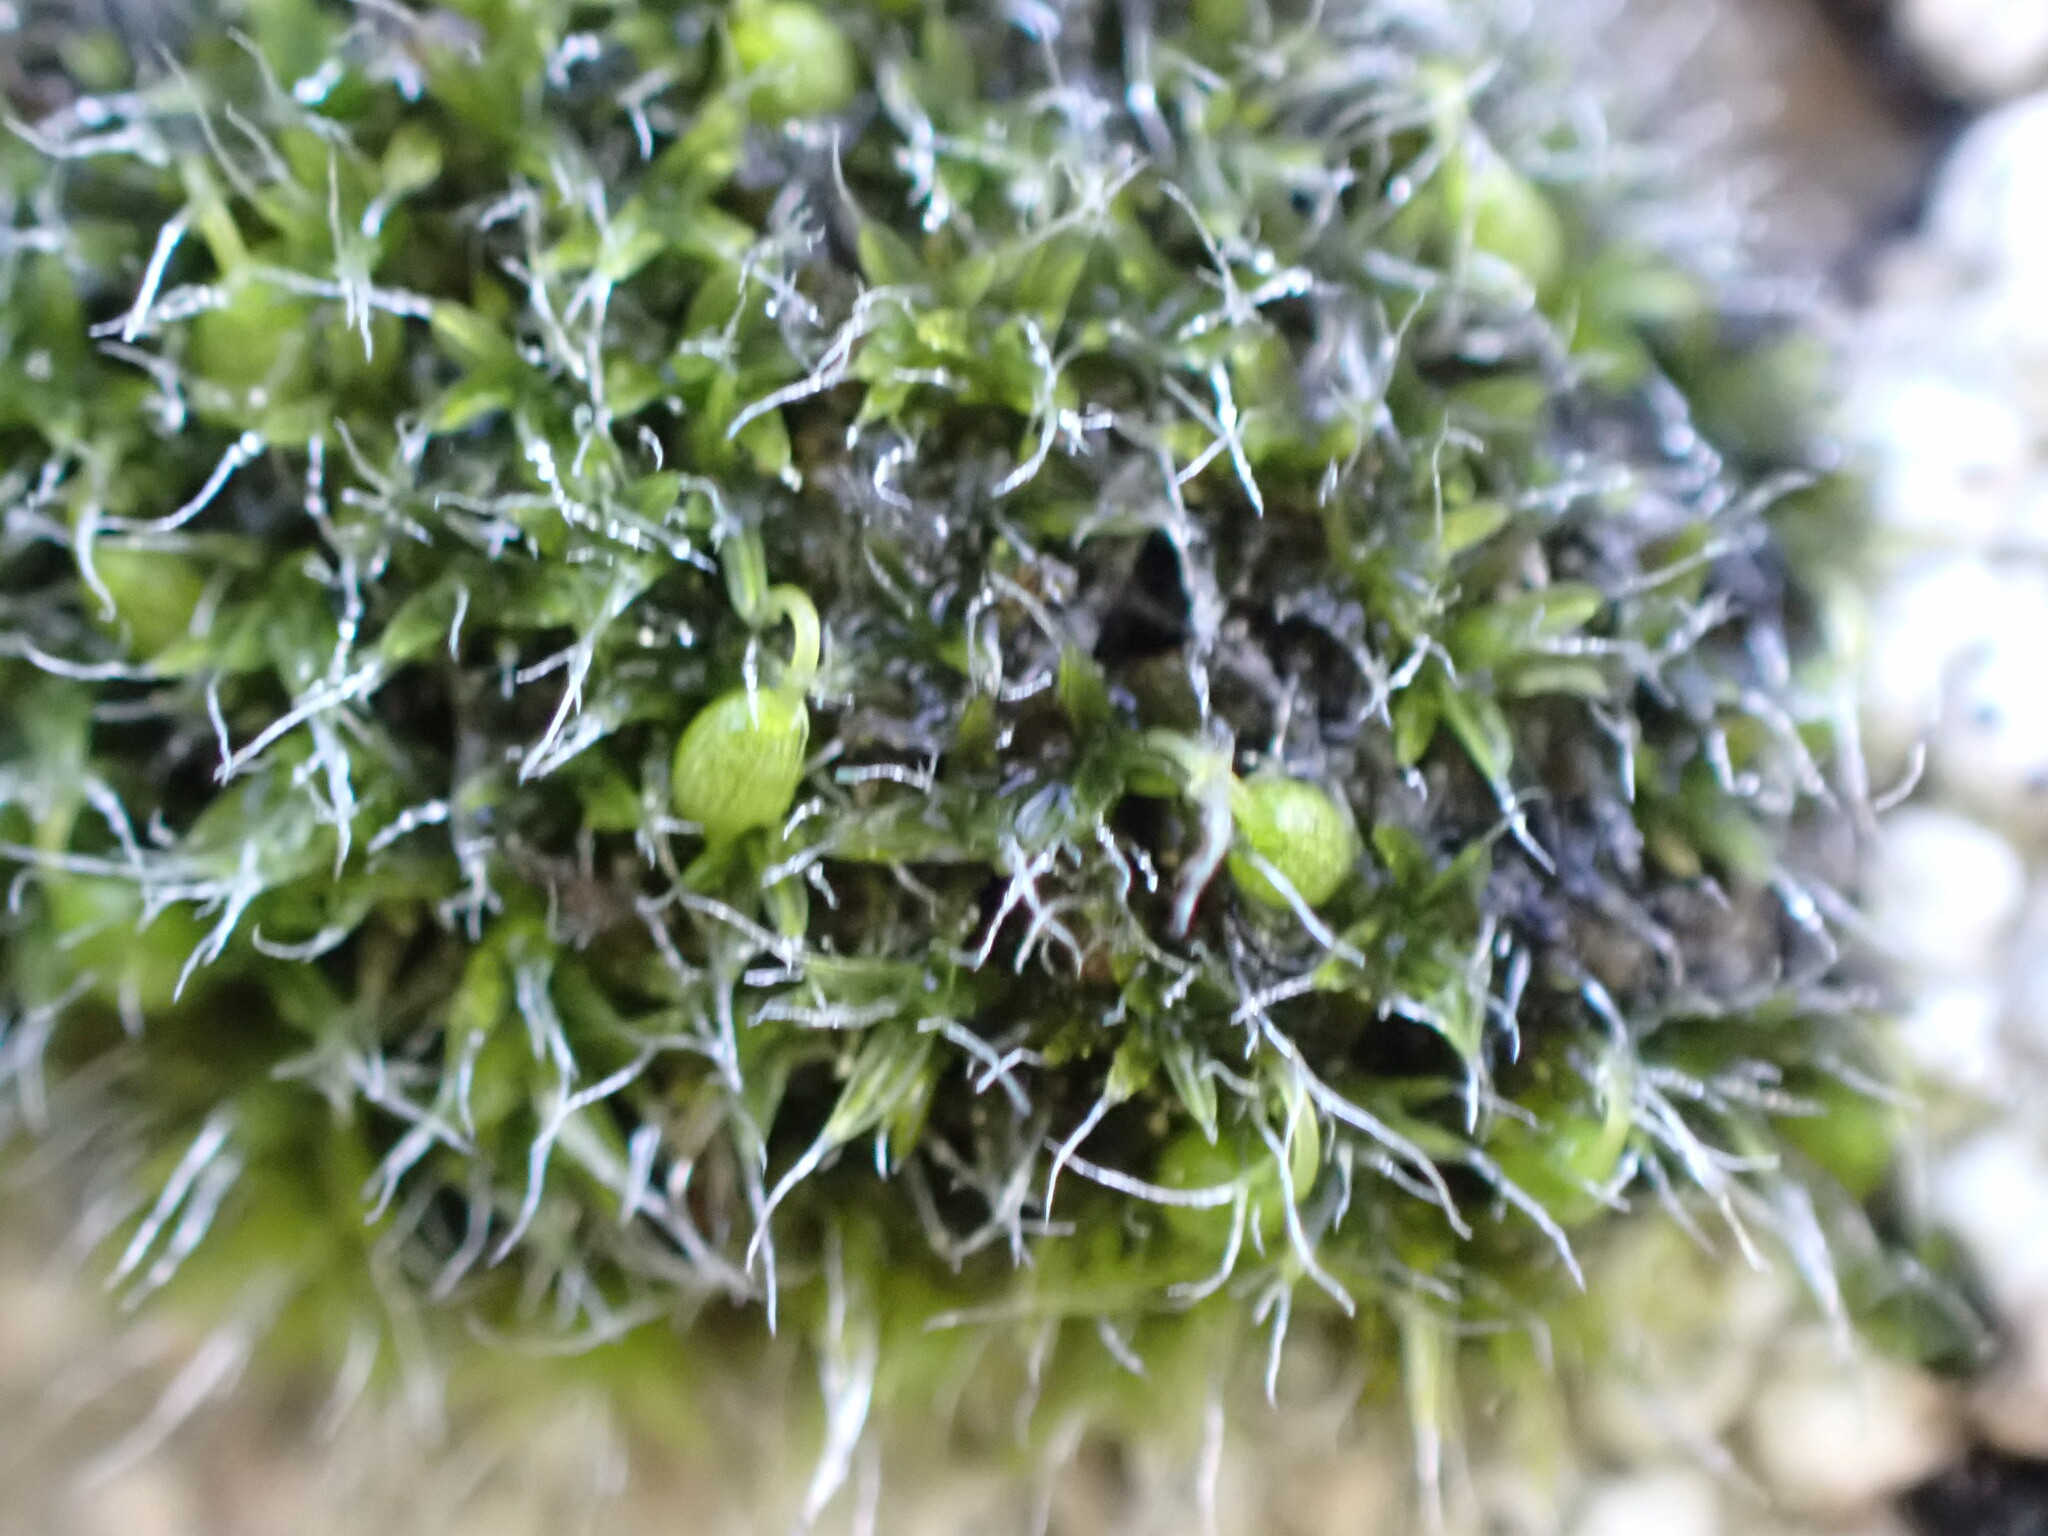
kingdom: Plantae
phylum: Bryophyta
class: Bryopsida
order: Grimmiales
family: Grimmiaceae
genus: Grimmia
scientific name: Grimmia pulvinata
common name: Grey-cushioned grimmia
